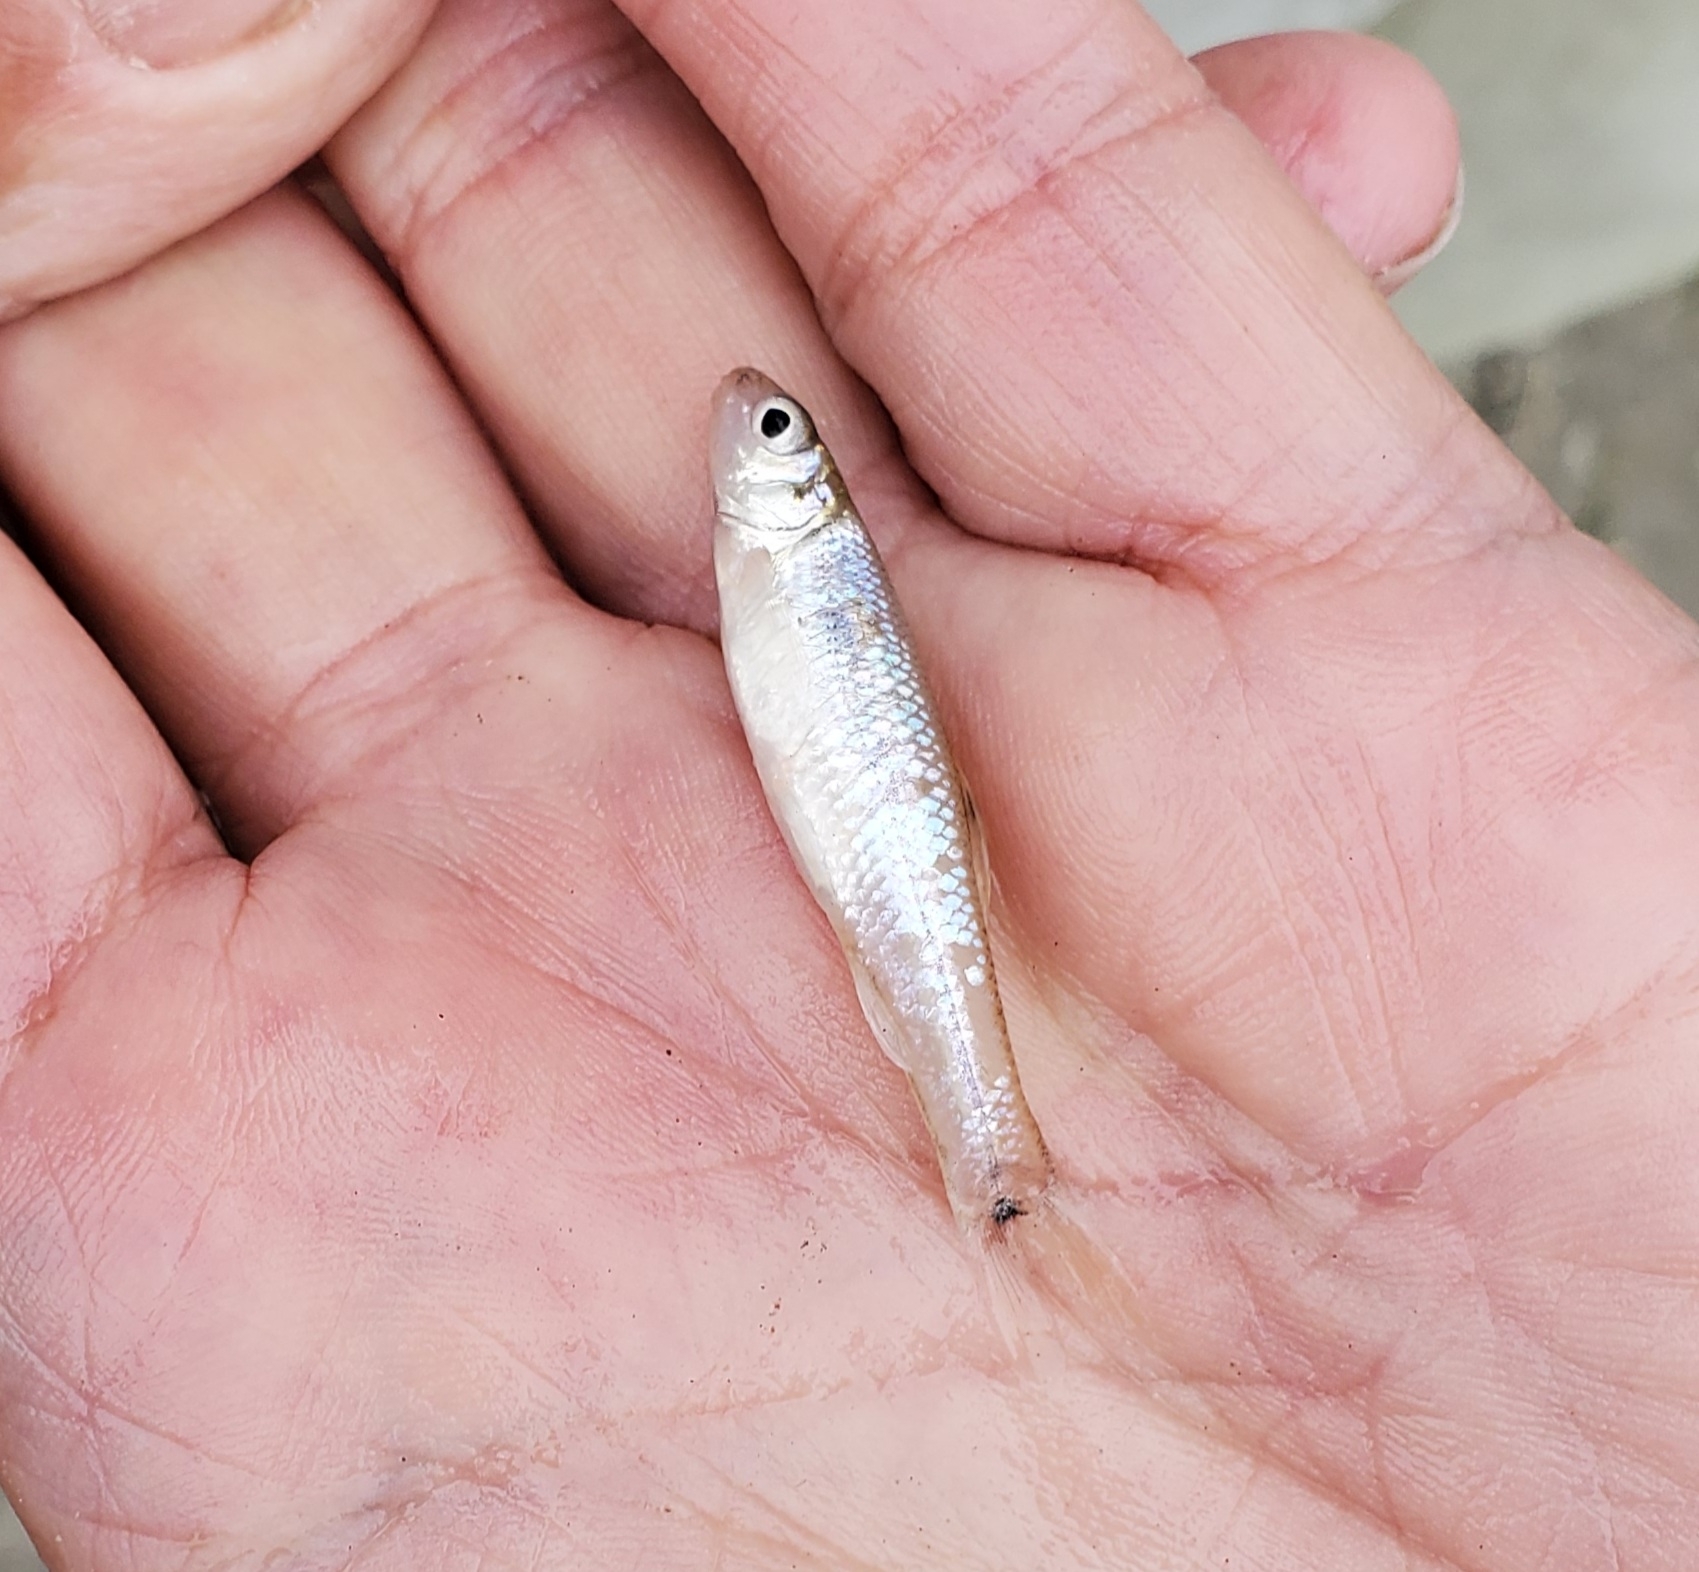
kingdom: Animalia
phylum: Chordata
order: Cypriniformes
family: Cyprinidae
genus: Pimephales
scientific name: Pimephales vigilax
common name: Bullhead minnow
